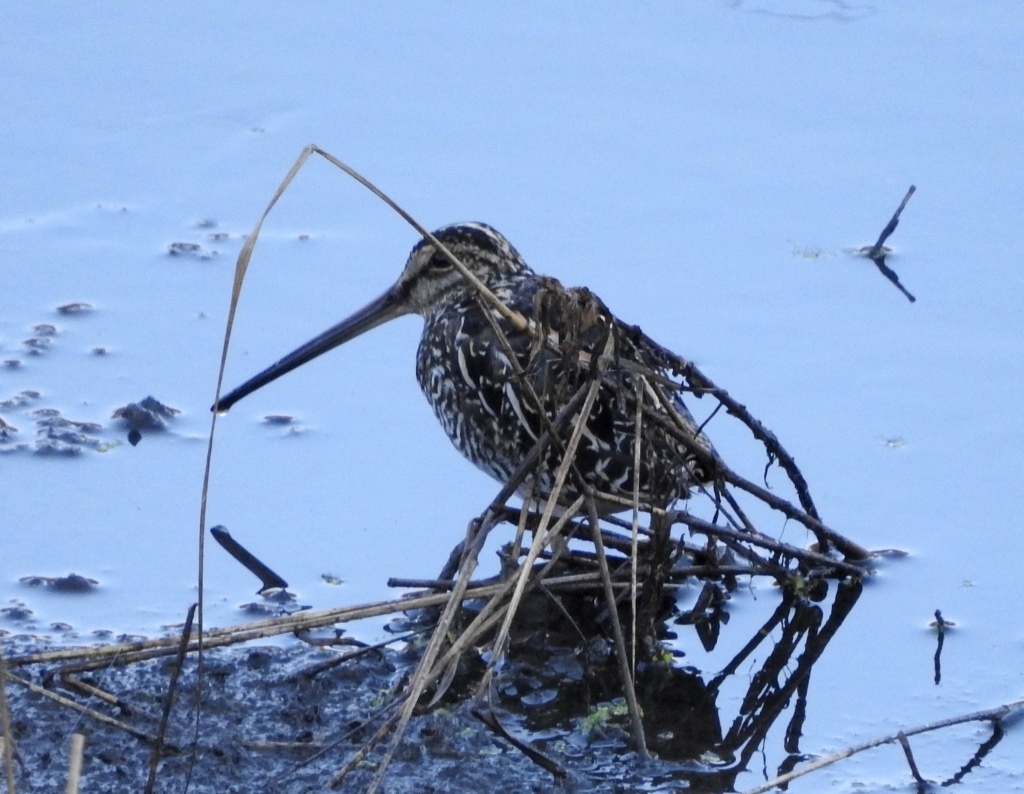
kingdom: Animalia
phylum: Chordata
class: Aves
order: Charadriiformes
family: Scolopacidae
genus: Gallinago
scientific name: Gallinago nigripennis
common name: African snipe
